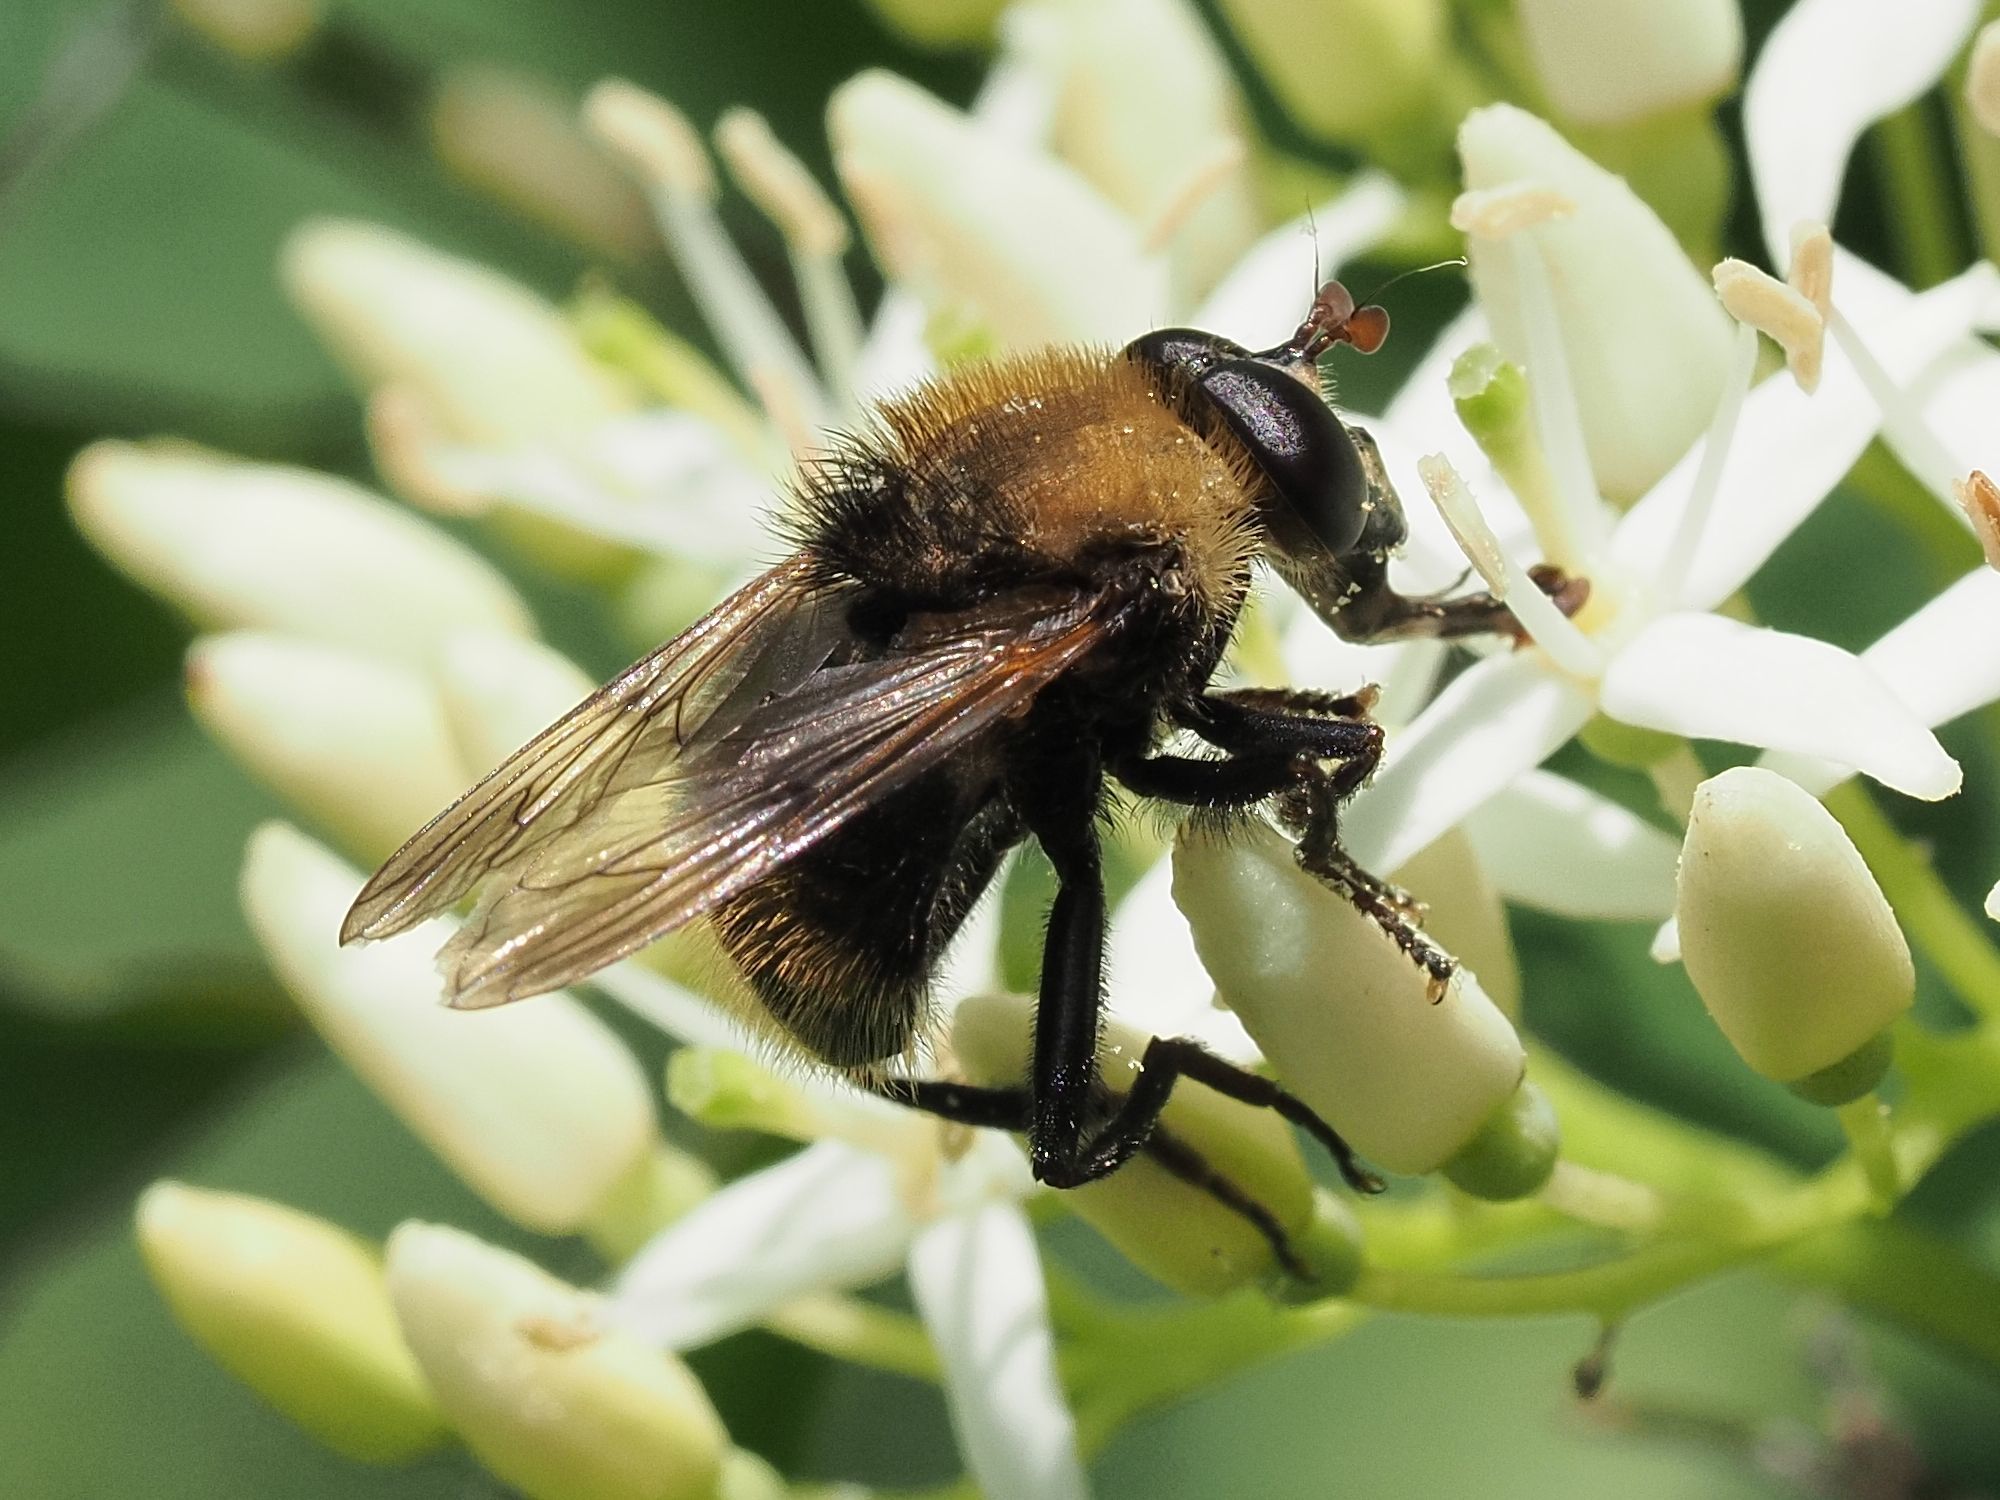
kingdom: Animalia
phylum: Arthropoda
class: Insecta
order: Diptera
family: Syrphidae
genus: Criorhina
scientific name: Criorhina berberina
